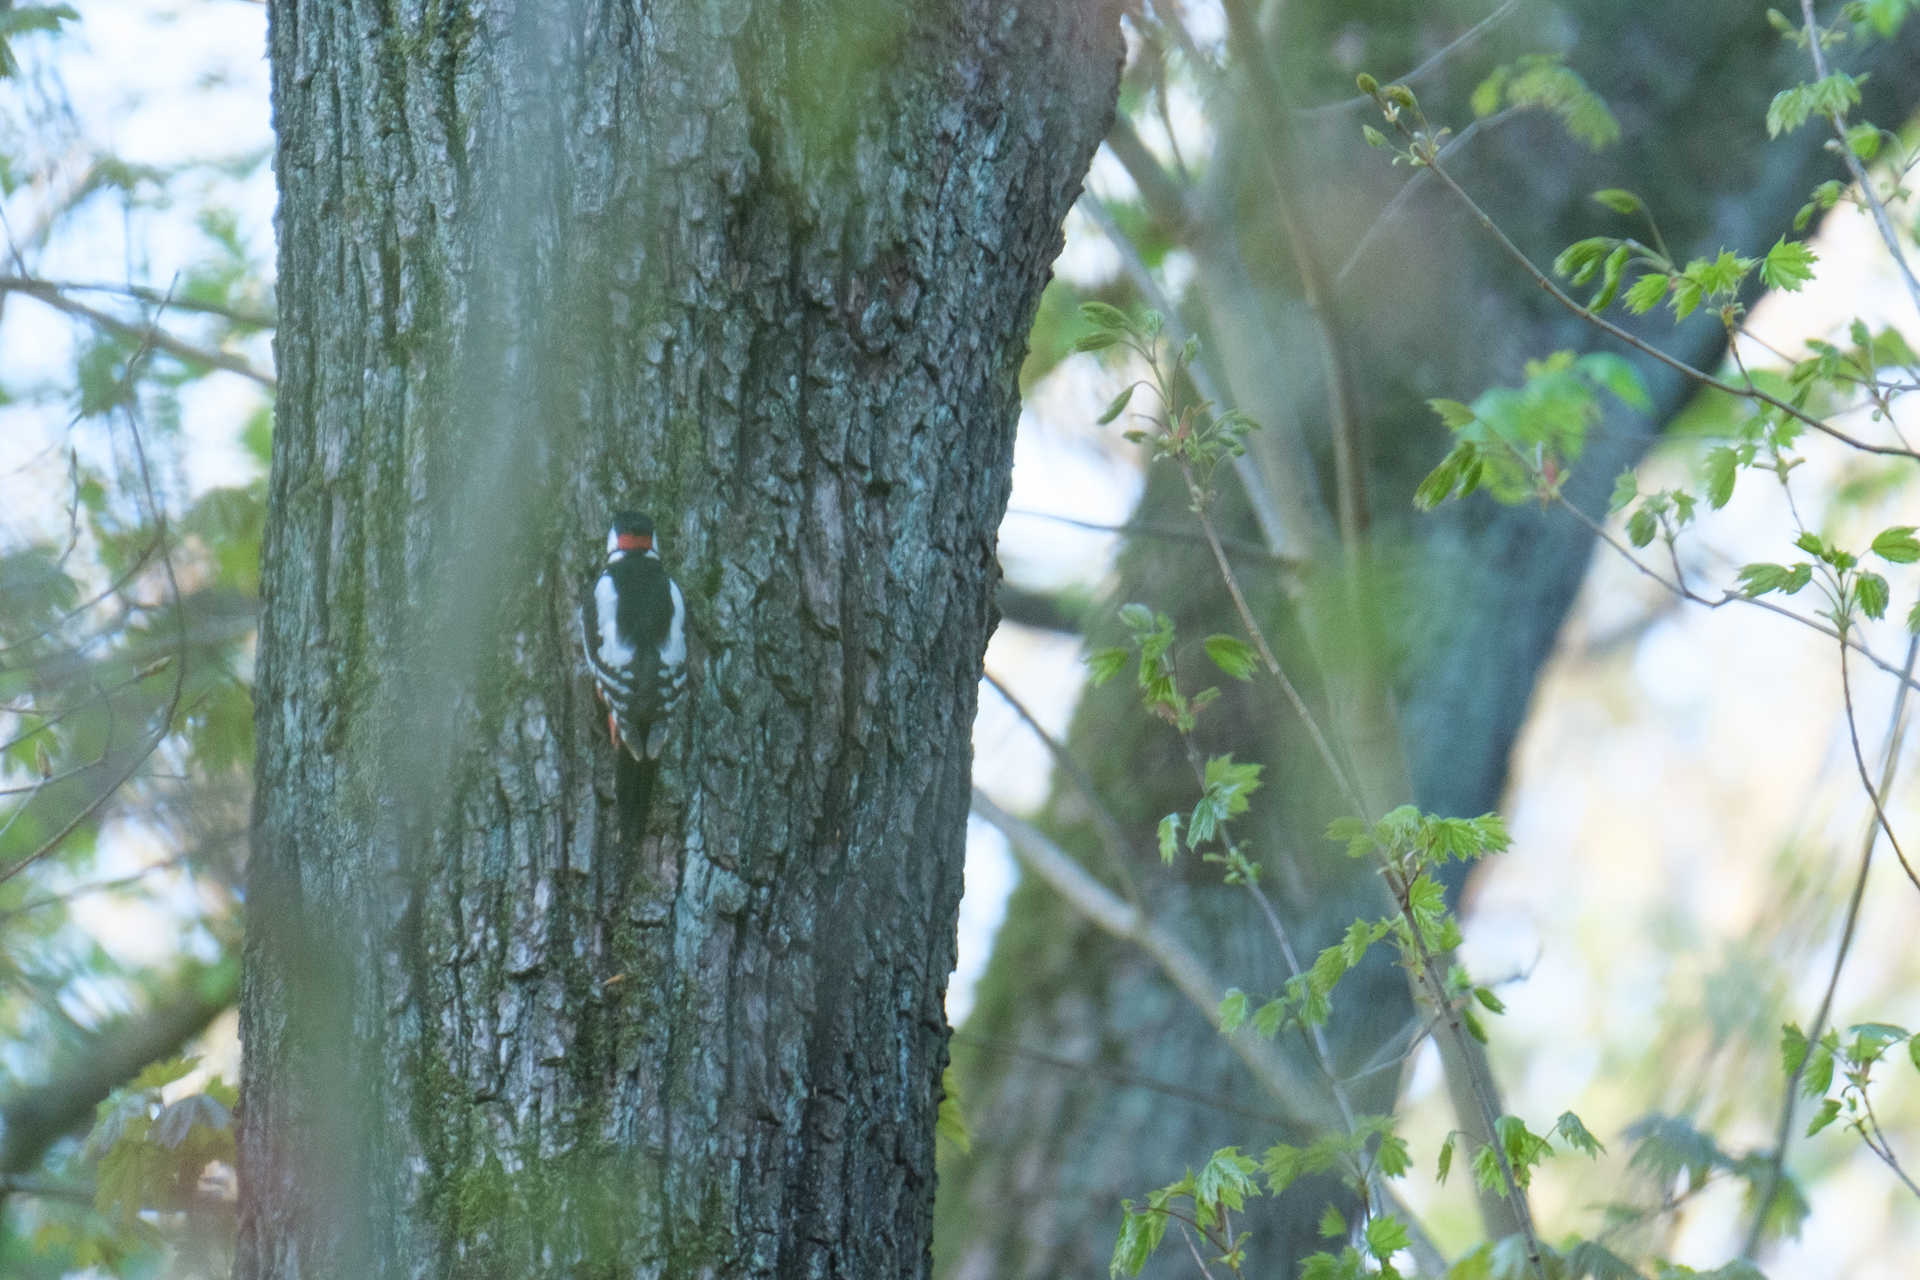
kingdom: Animalia
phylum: Chordata
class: Aves
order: Piciformes
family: Picidae
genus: Dendrocopos
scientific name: Dendrocopos major
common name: Great spotted woodpecker
